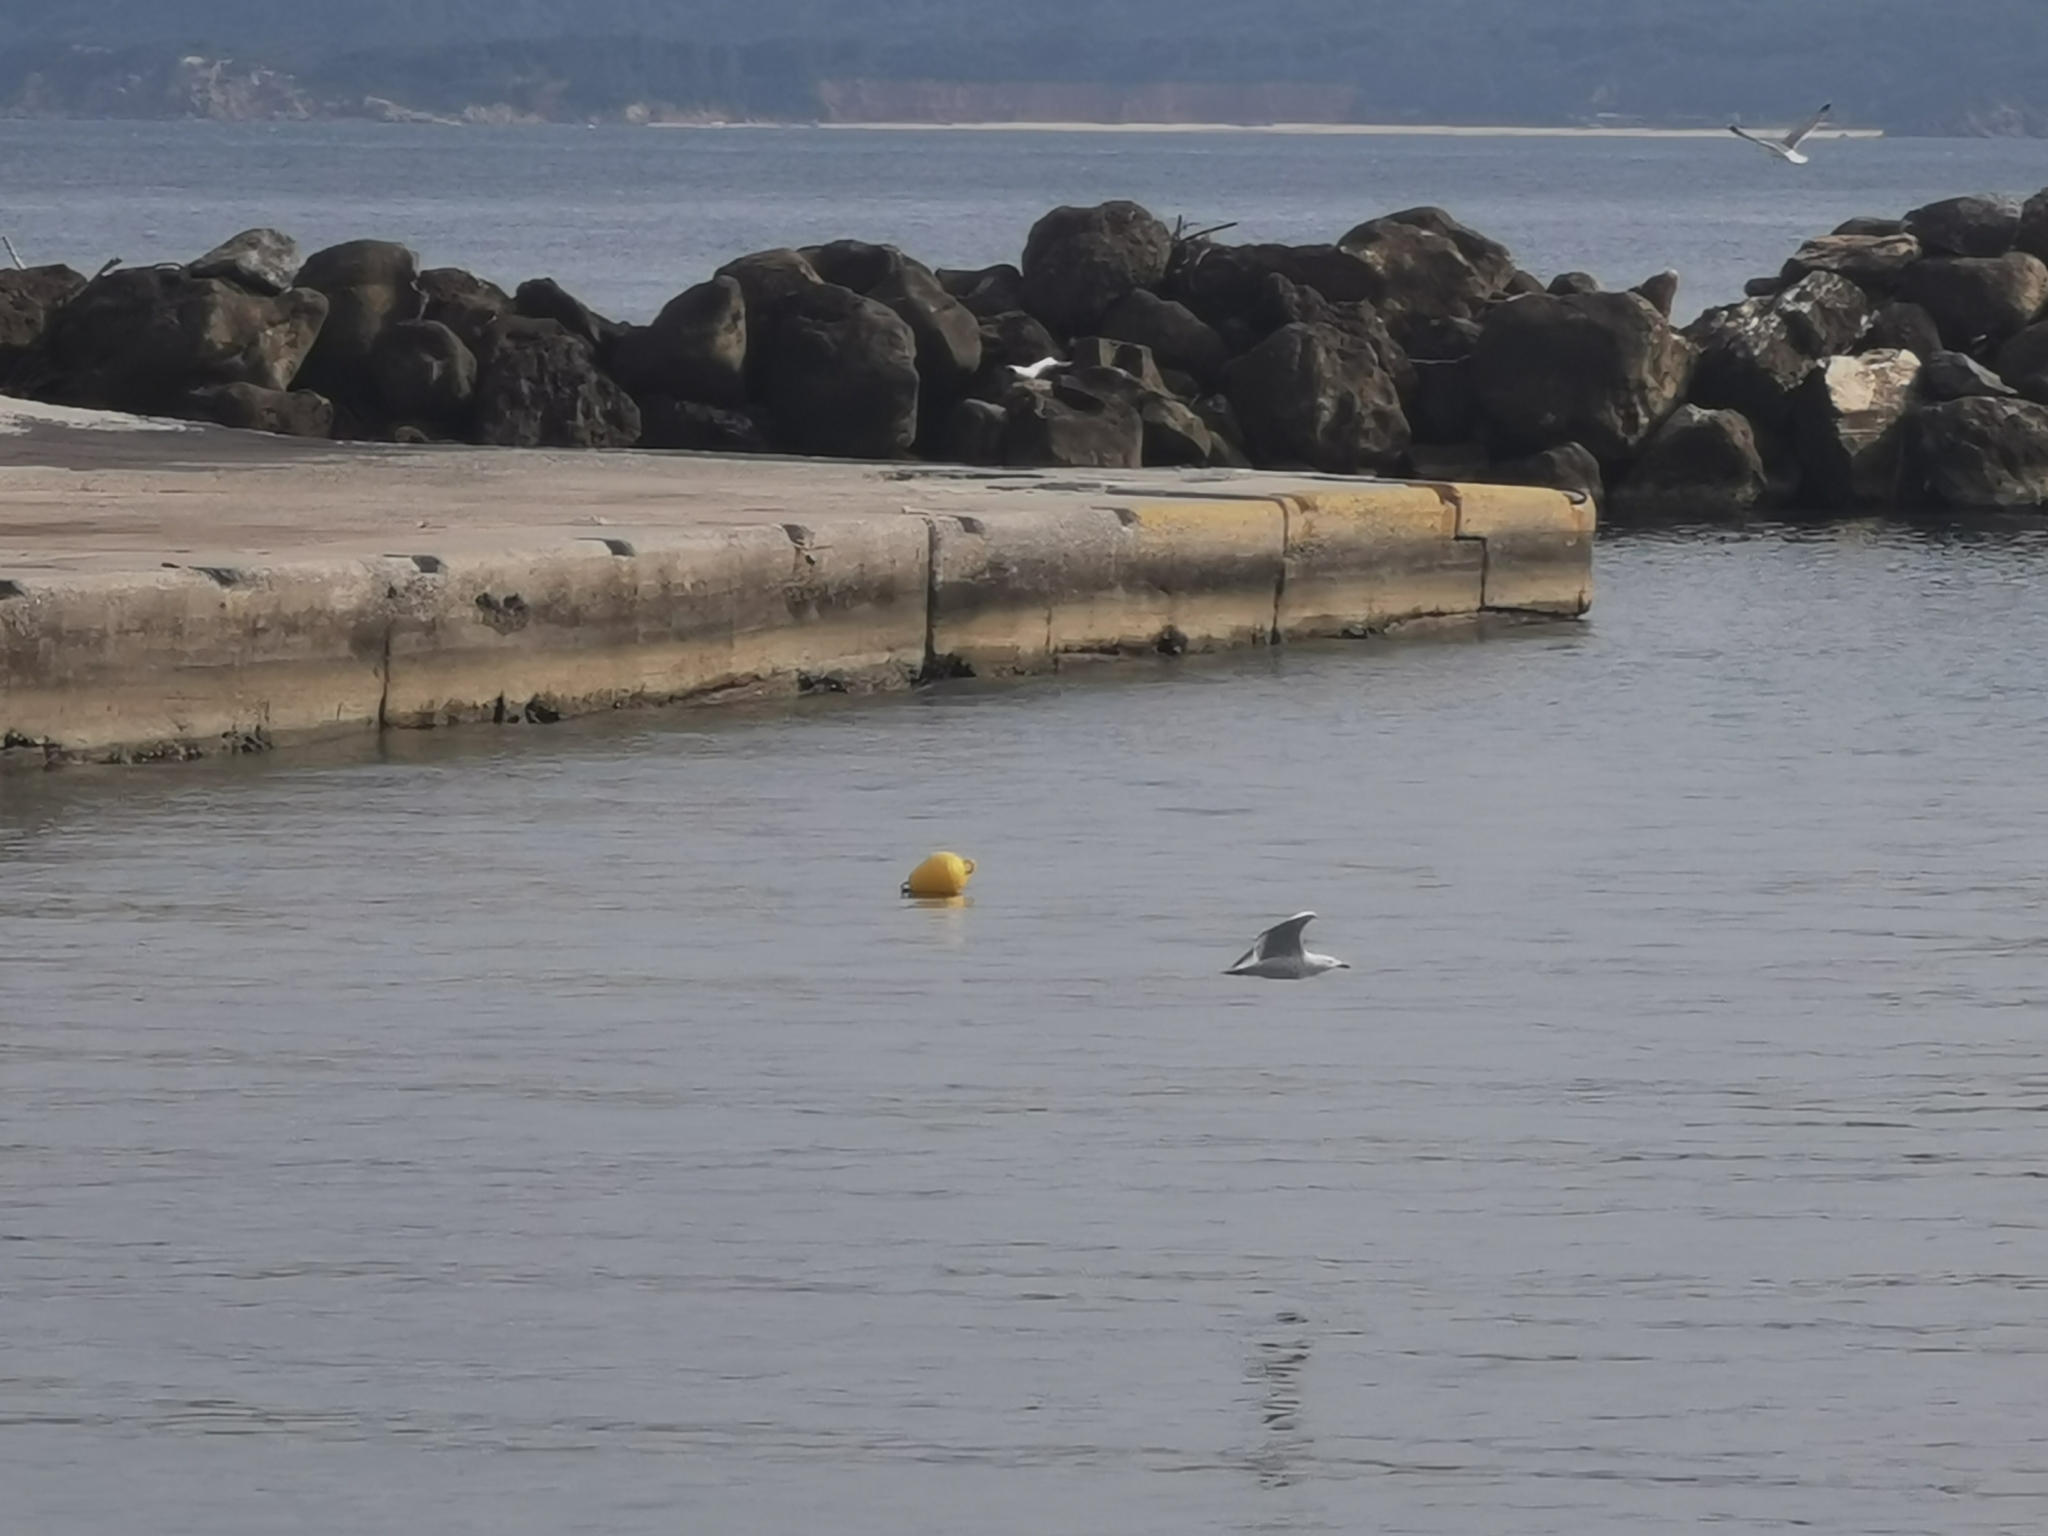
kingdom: Animalia
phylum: Chordata
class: Aves
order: Charadriiformes
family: Laridae
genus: Larus
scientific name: Larus michahellis
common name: Yellow-legged gull
